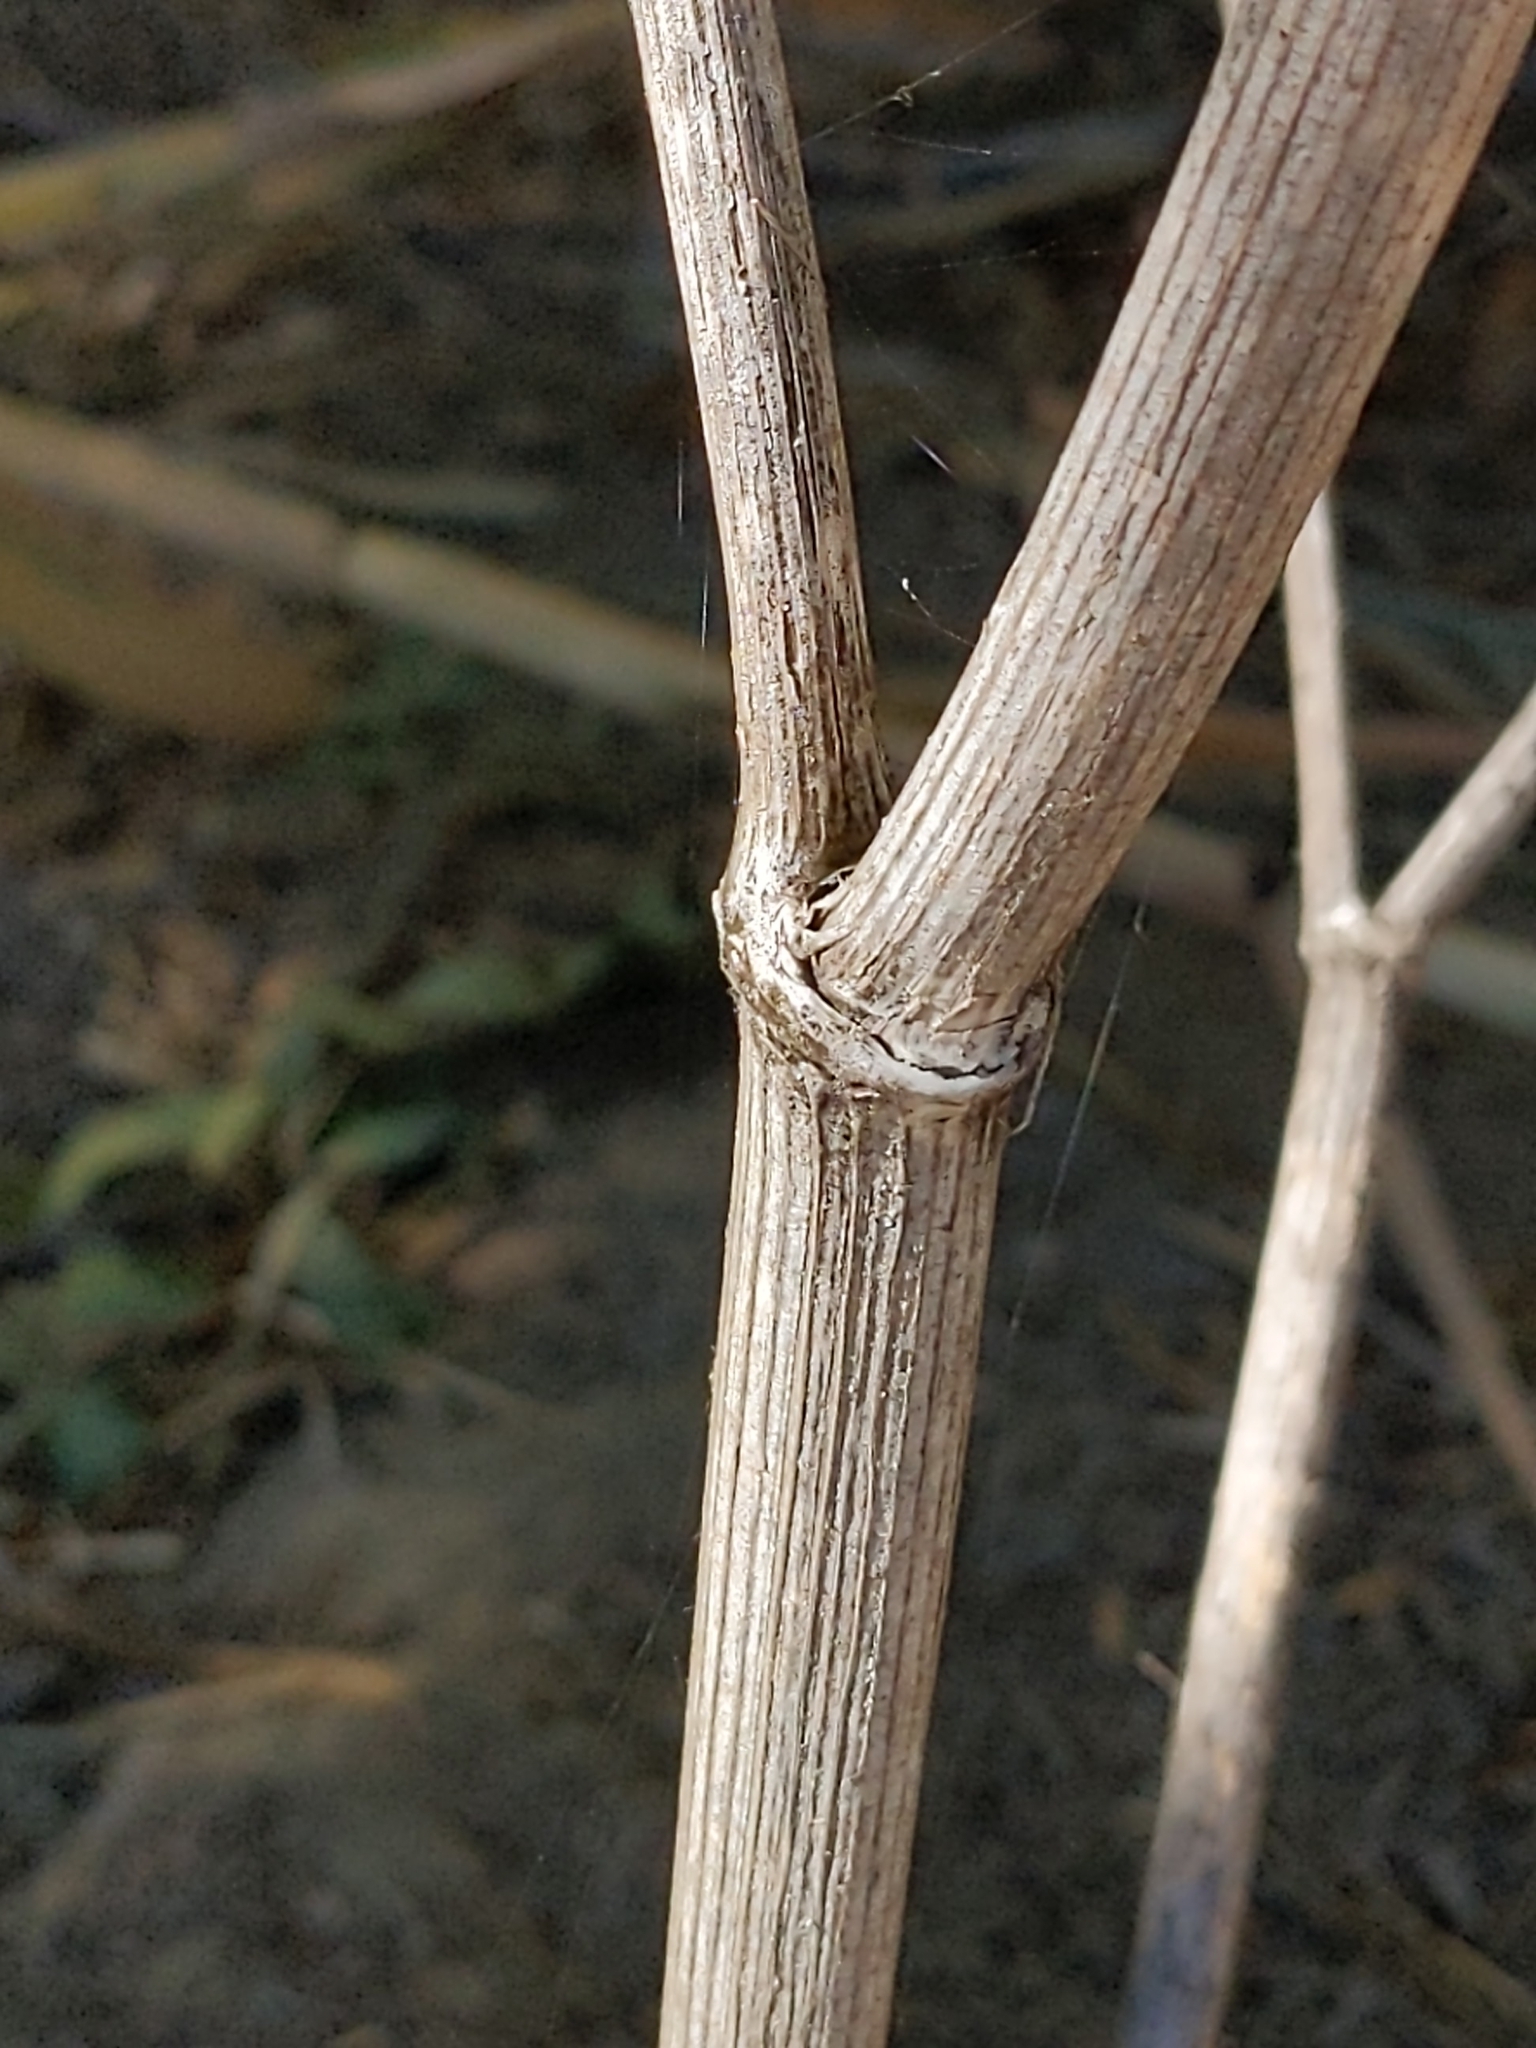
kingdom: Plantae
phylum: Tracheophyta
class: Magnoliopsida
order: Apiales
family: Apiaceae
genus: Conium
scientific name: Conium maculatum
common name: Hemlock
